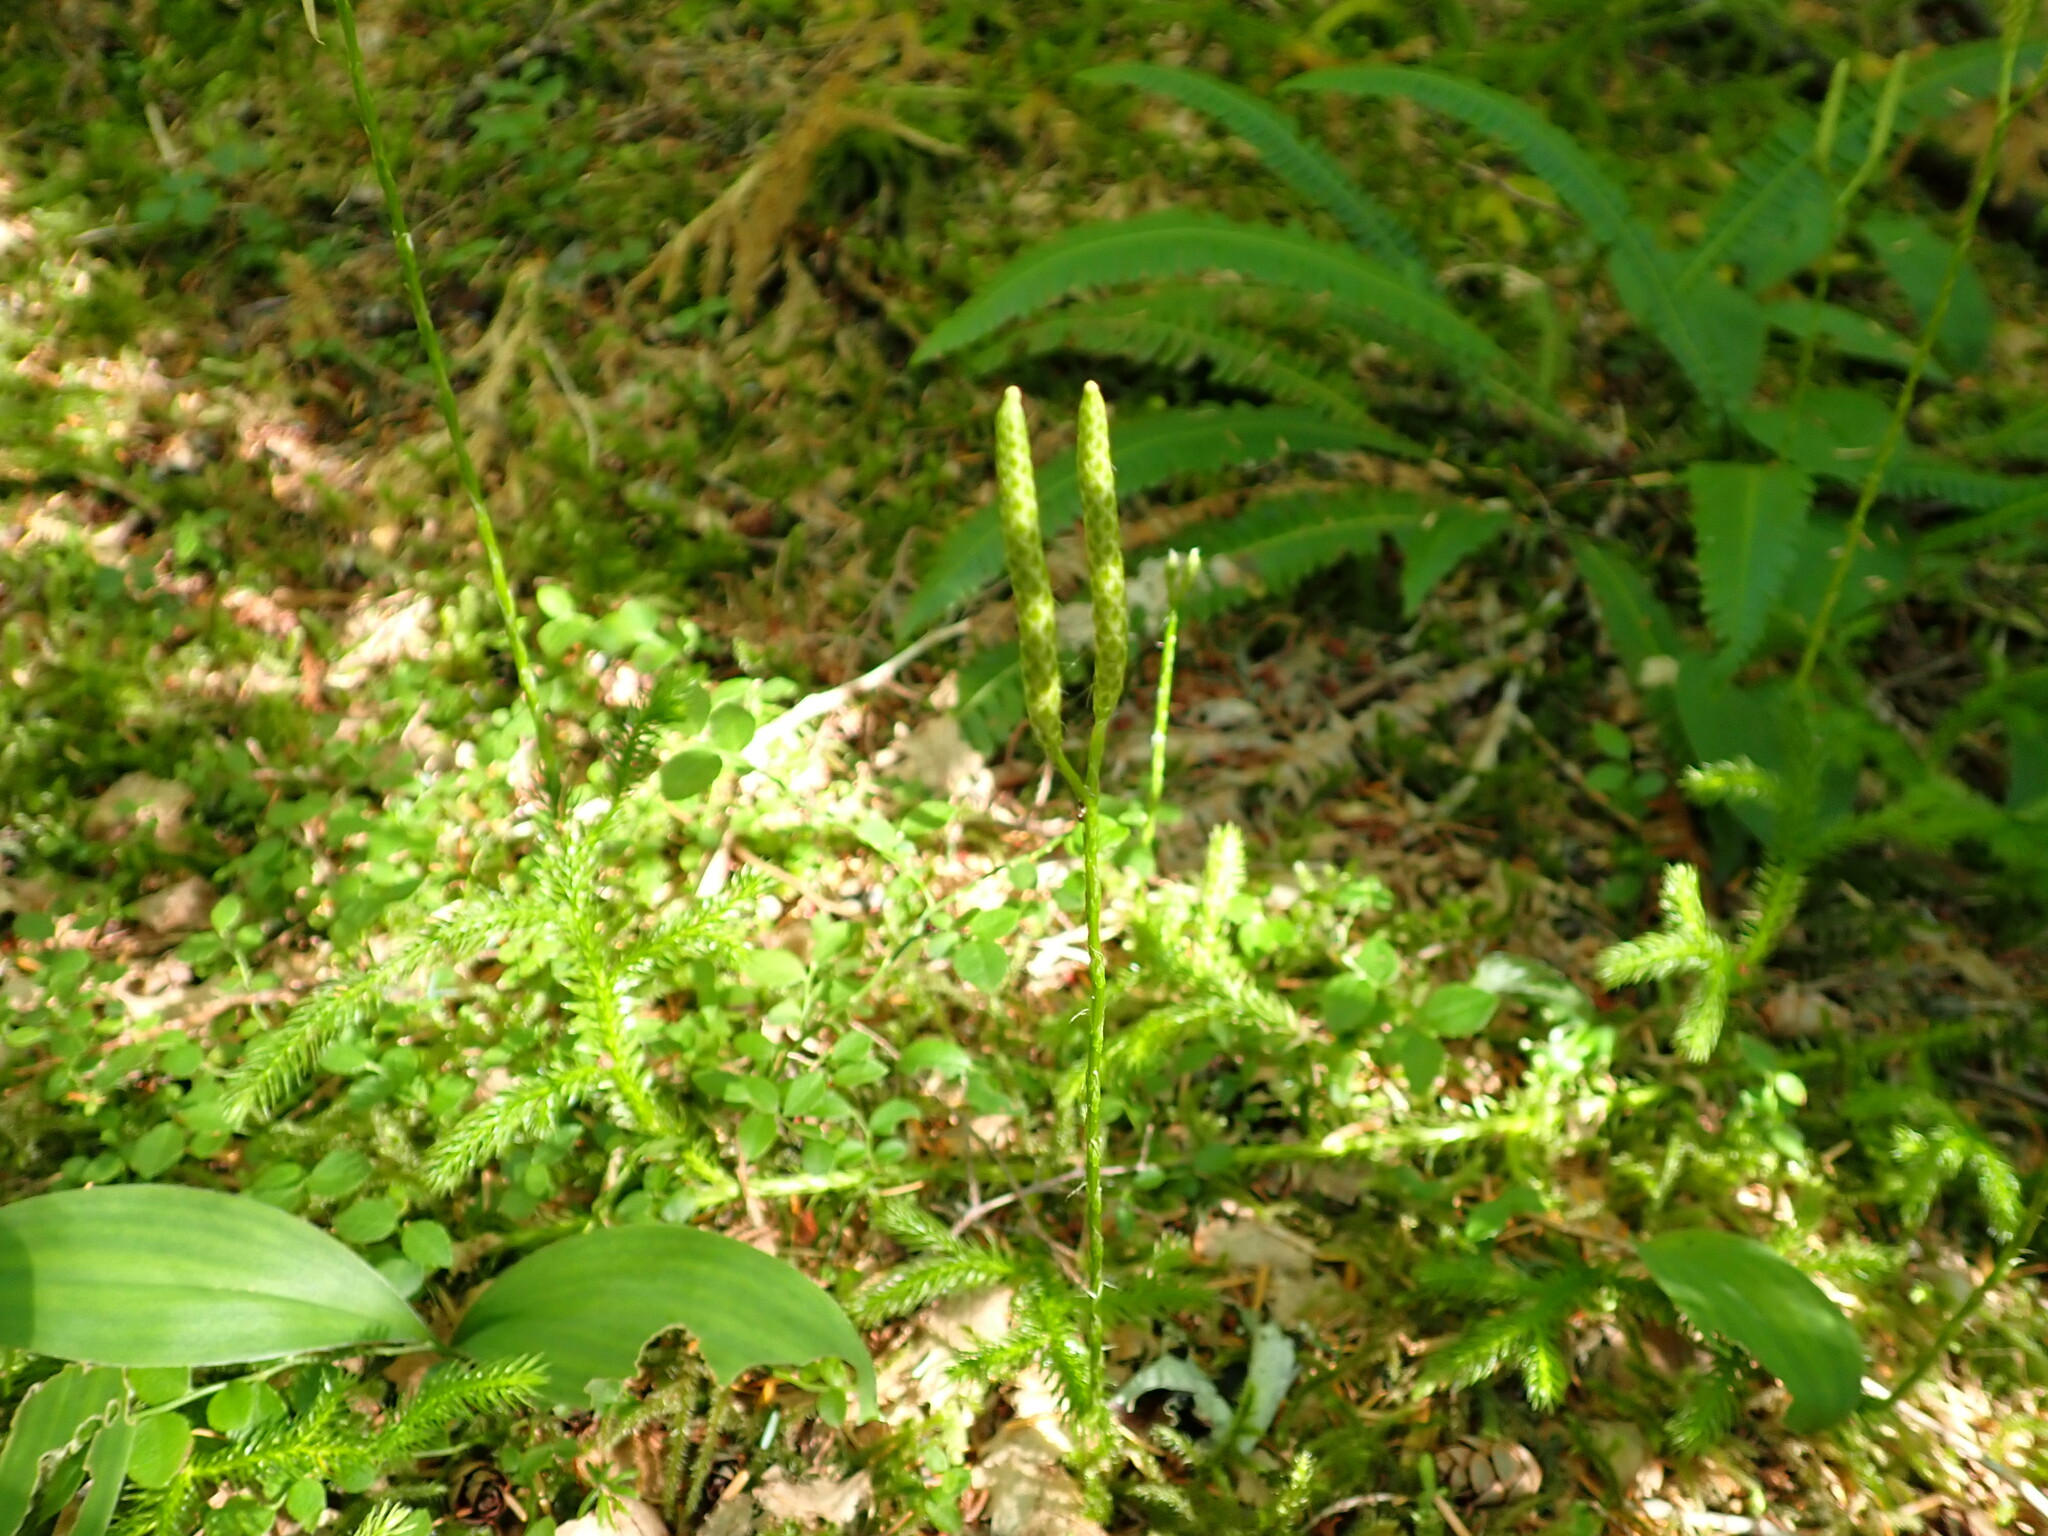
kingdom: Plantae
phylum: Tracheophyta
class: Lycopodiopsida
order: Lycopodiales
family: Lycopodiaceae
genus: Lycopodium
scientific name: Lycopodium clavatum
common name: Stag's-horn clubmoss
